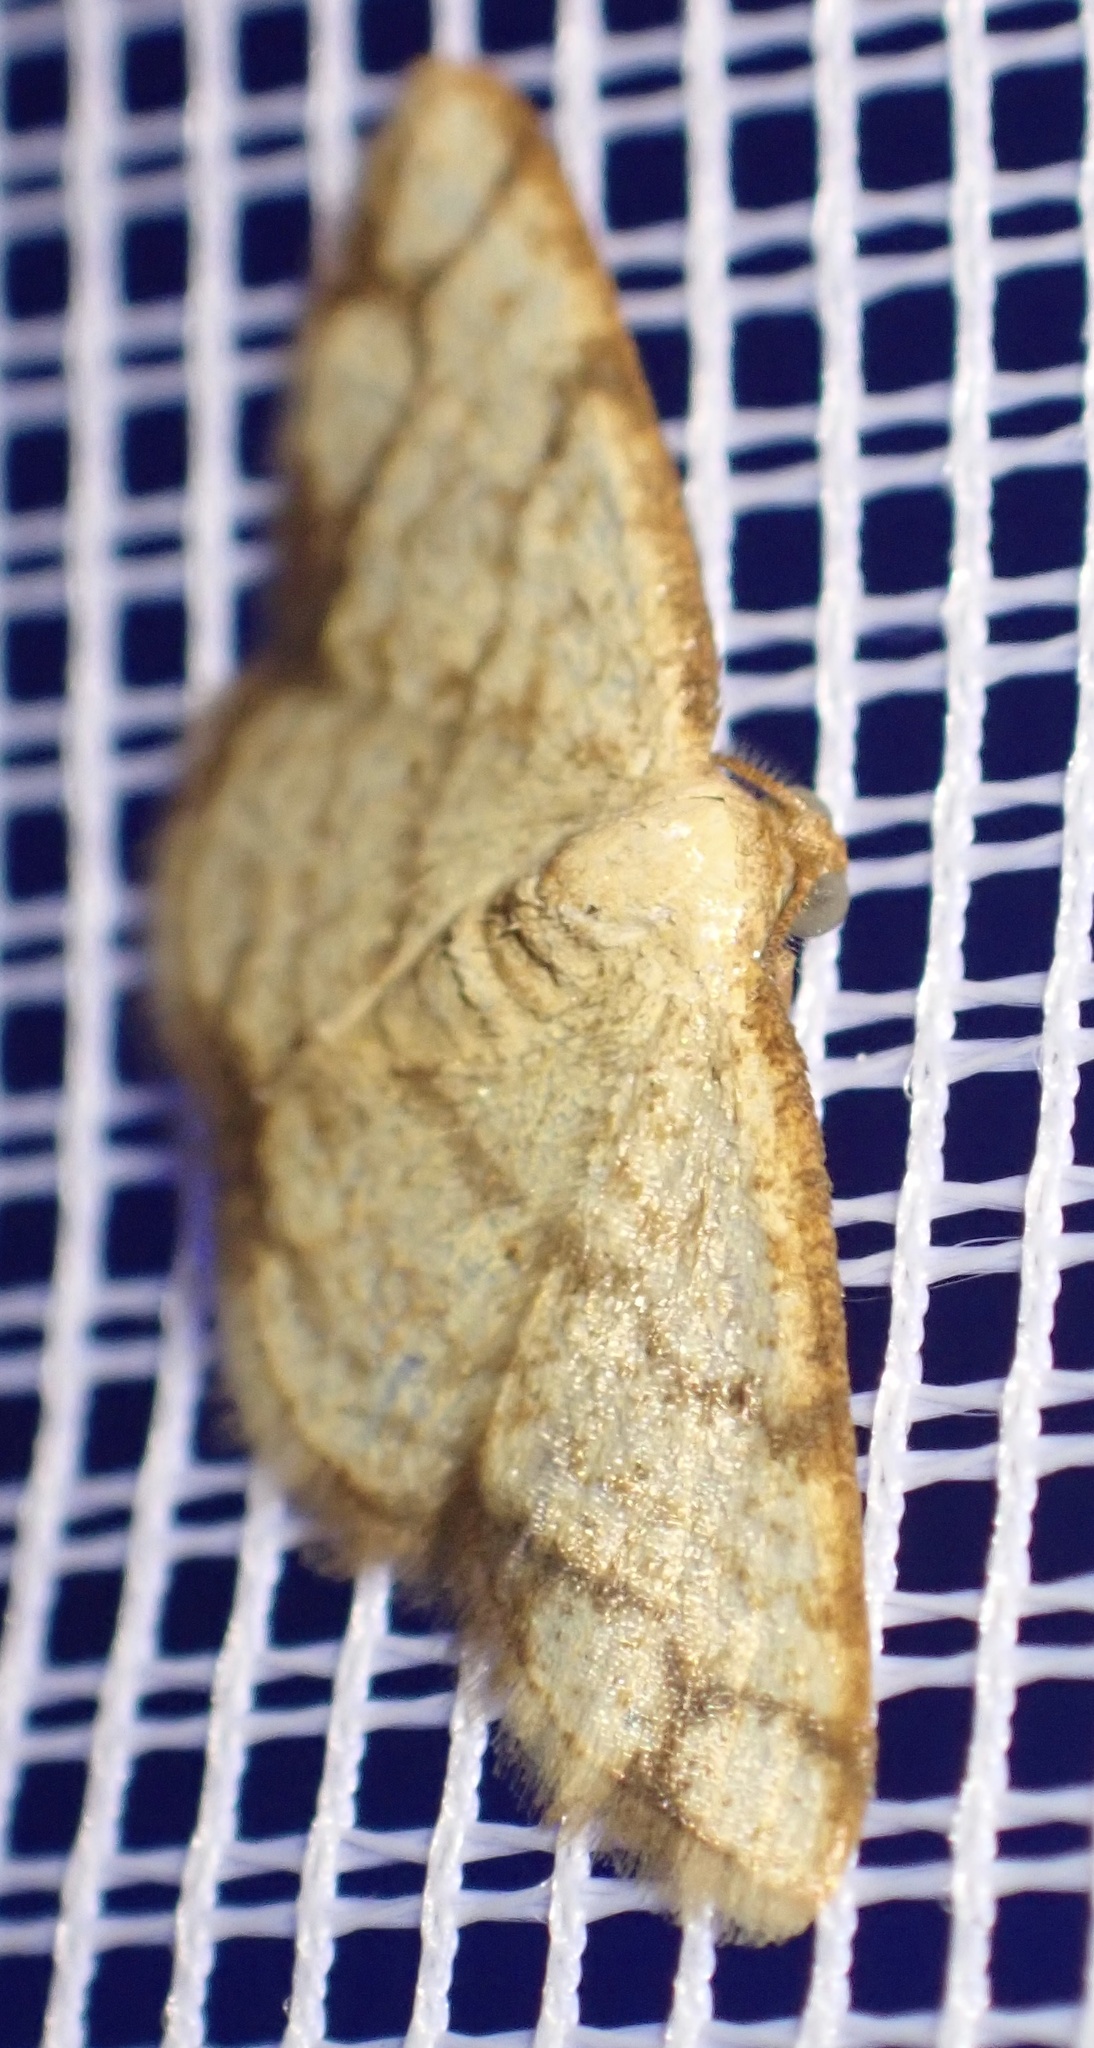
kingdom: Animalia
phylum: Arthropoda
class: Insecta
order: Lepidoptera
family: Geometridae
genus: Lomographa
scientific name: Lomographa indularia
